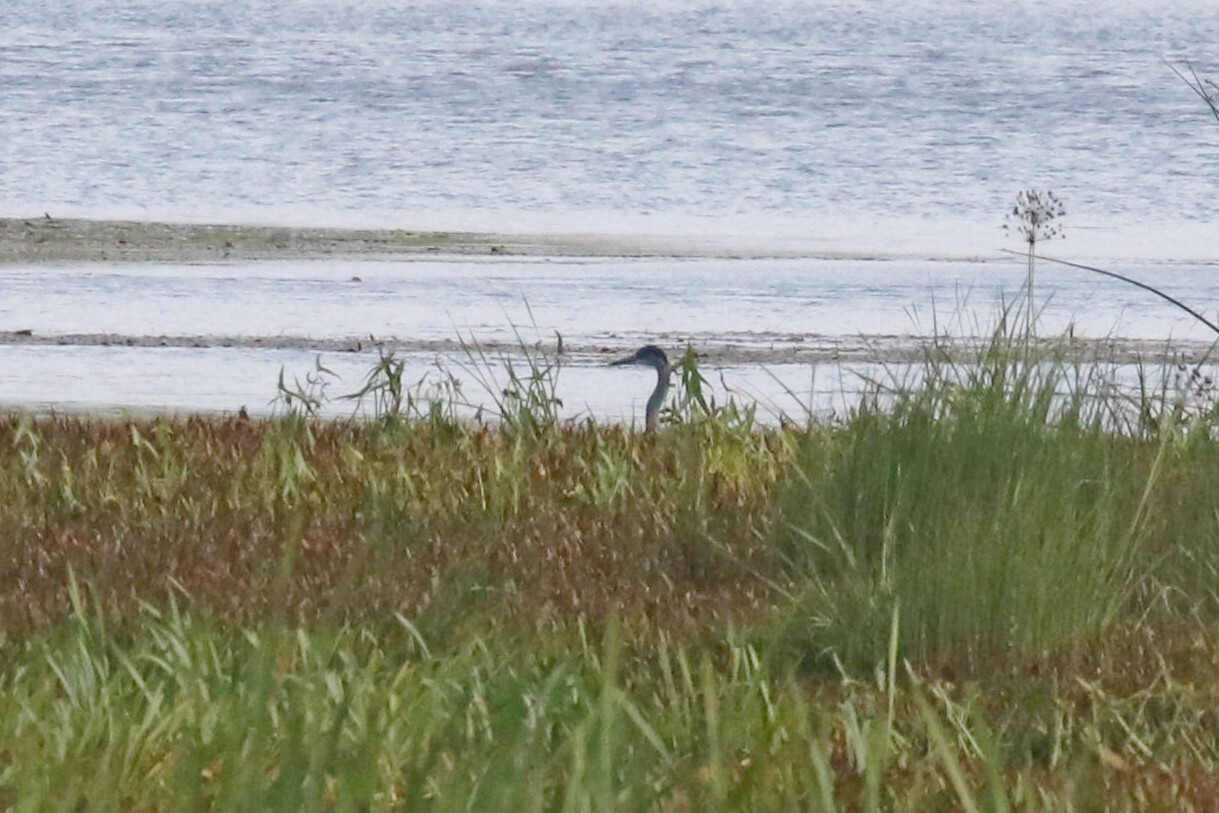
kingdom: Animalia
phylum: Chordata
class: Aves
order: Pelecaniformes
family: Ardeidae
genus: Ardea
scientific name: Ardea cinerea
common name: Grey heron
